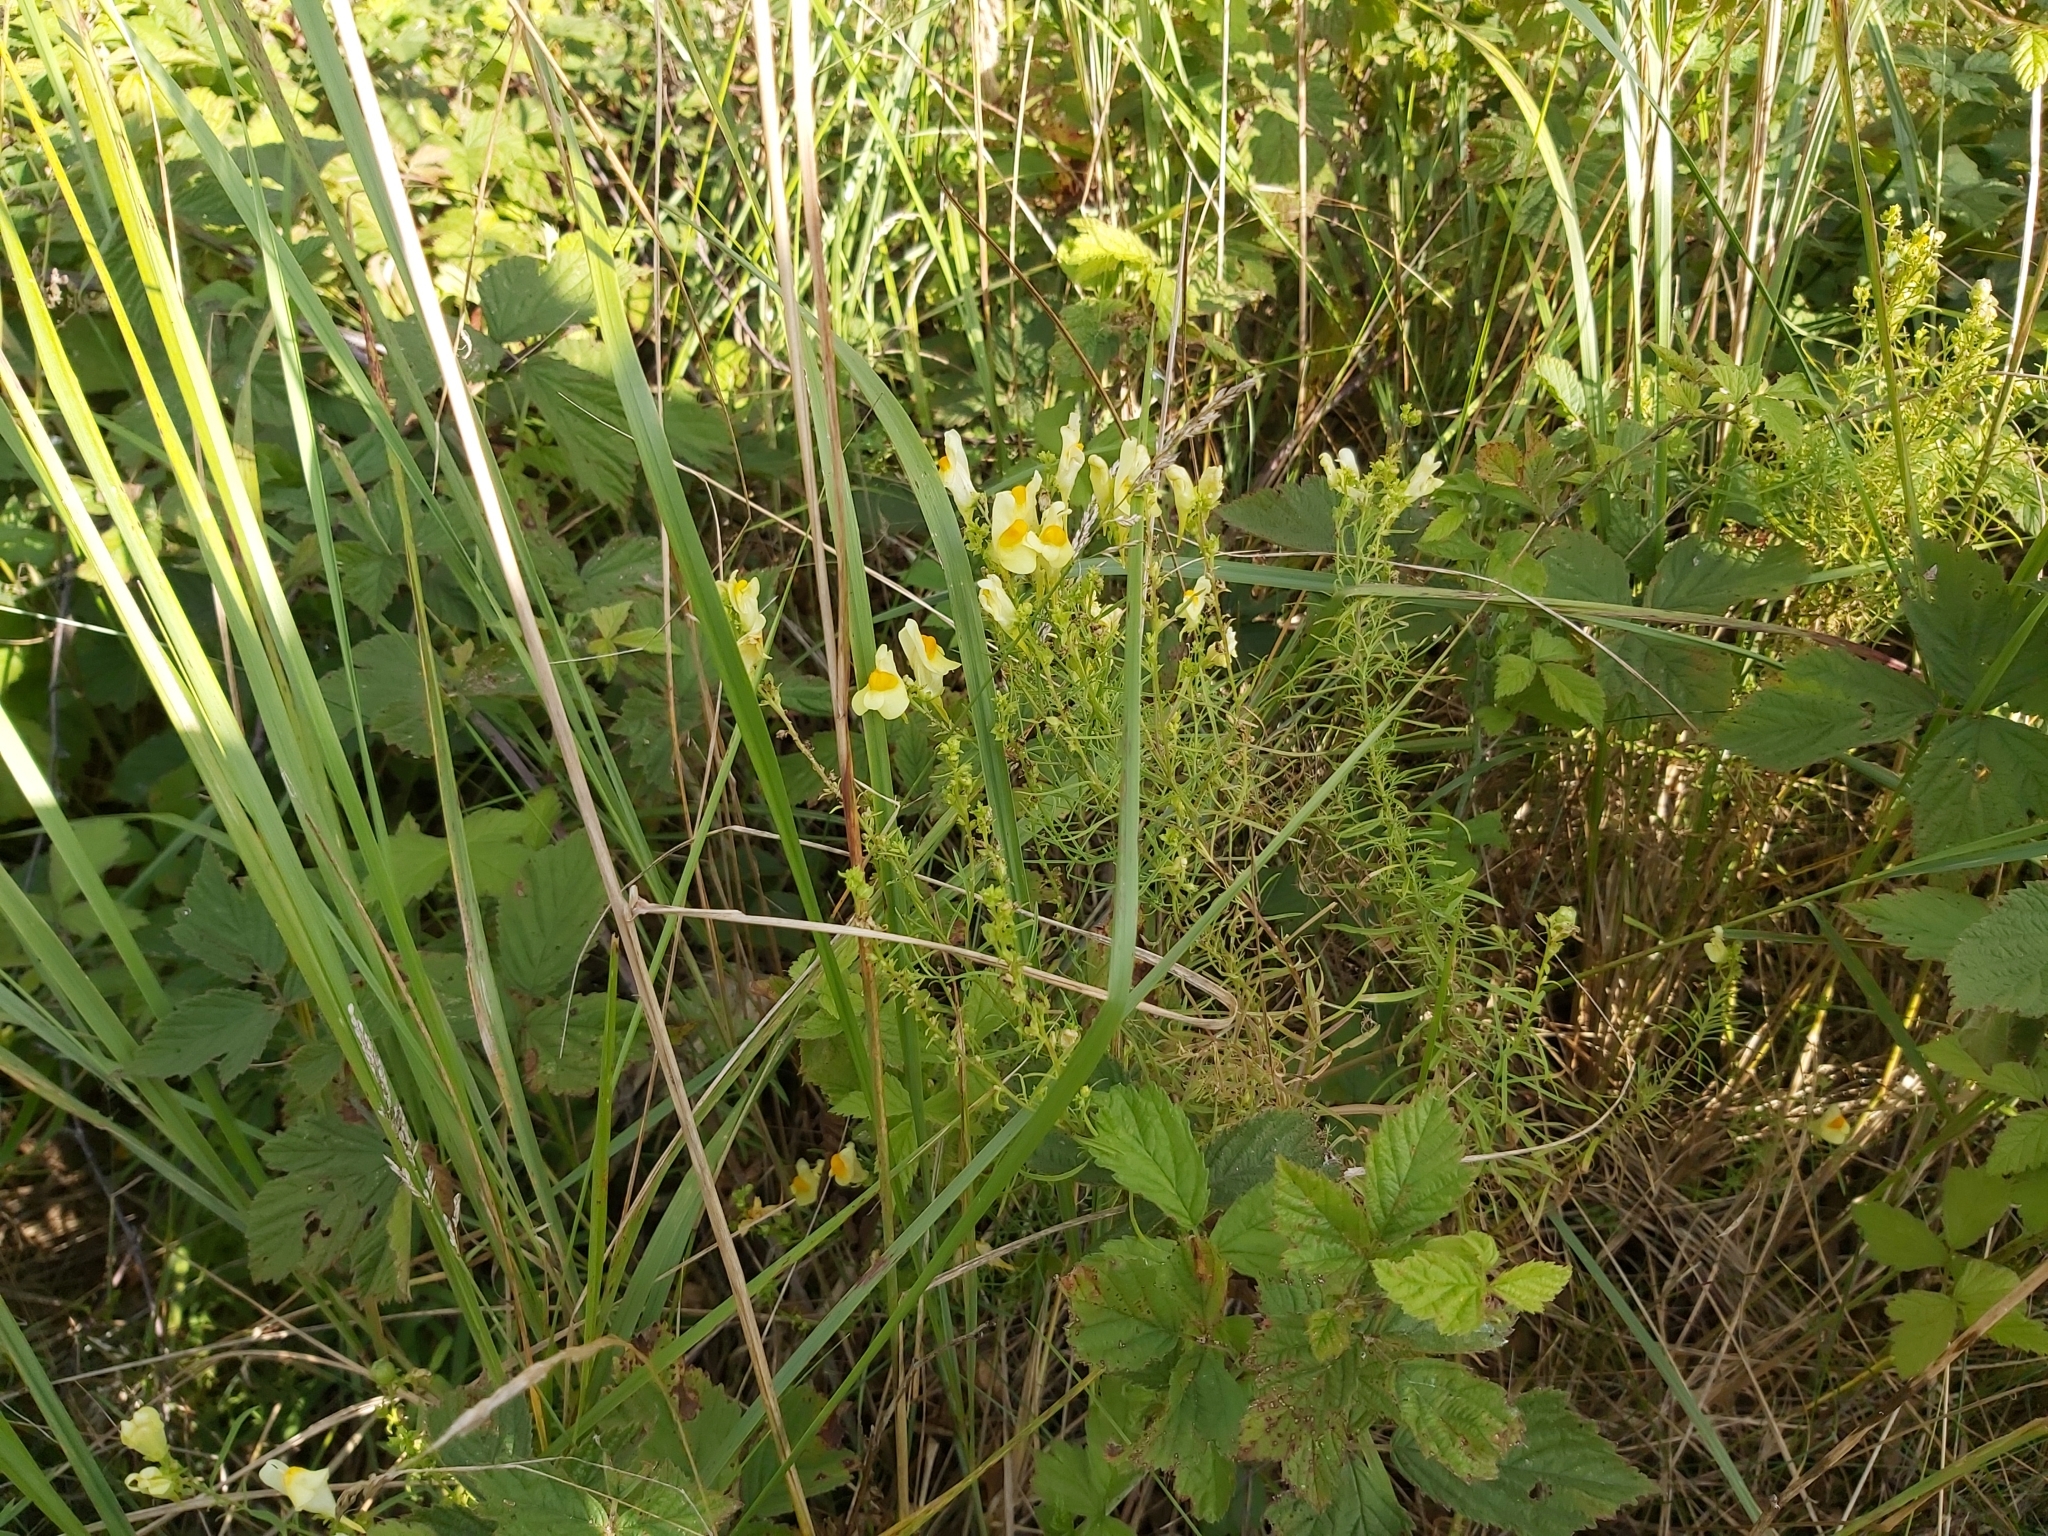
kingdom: Plantae
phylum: Tracheophyta
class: Magnoliopsida
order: Lamiales
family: Plantaginaceae
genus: Linaria
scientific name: Linaria vulgaris
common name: Butter and eggs
